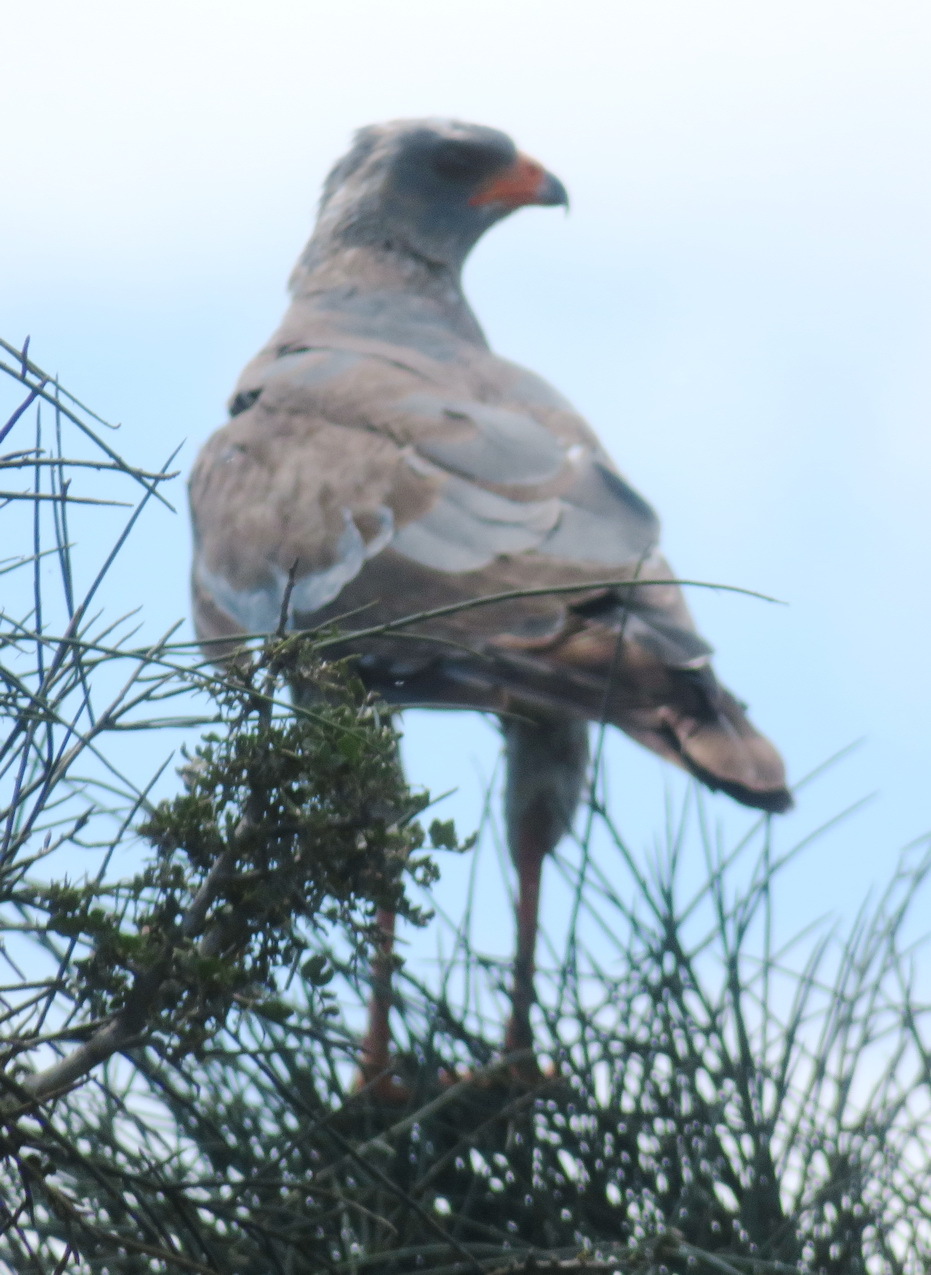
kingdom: Animalia
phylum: Chordata
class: Aves
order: Accipitriformes
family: Accipitridae
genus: Melierax
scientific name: Melierax canorus
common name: Pale chanting-goshawk
